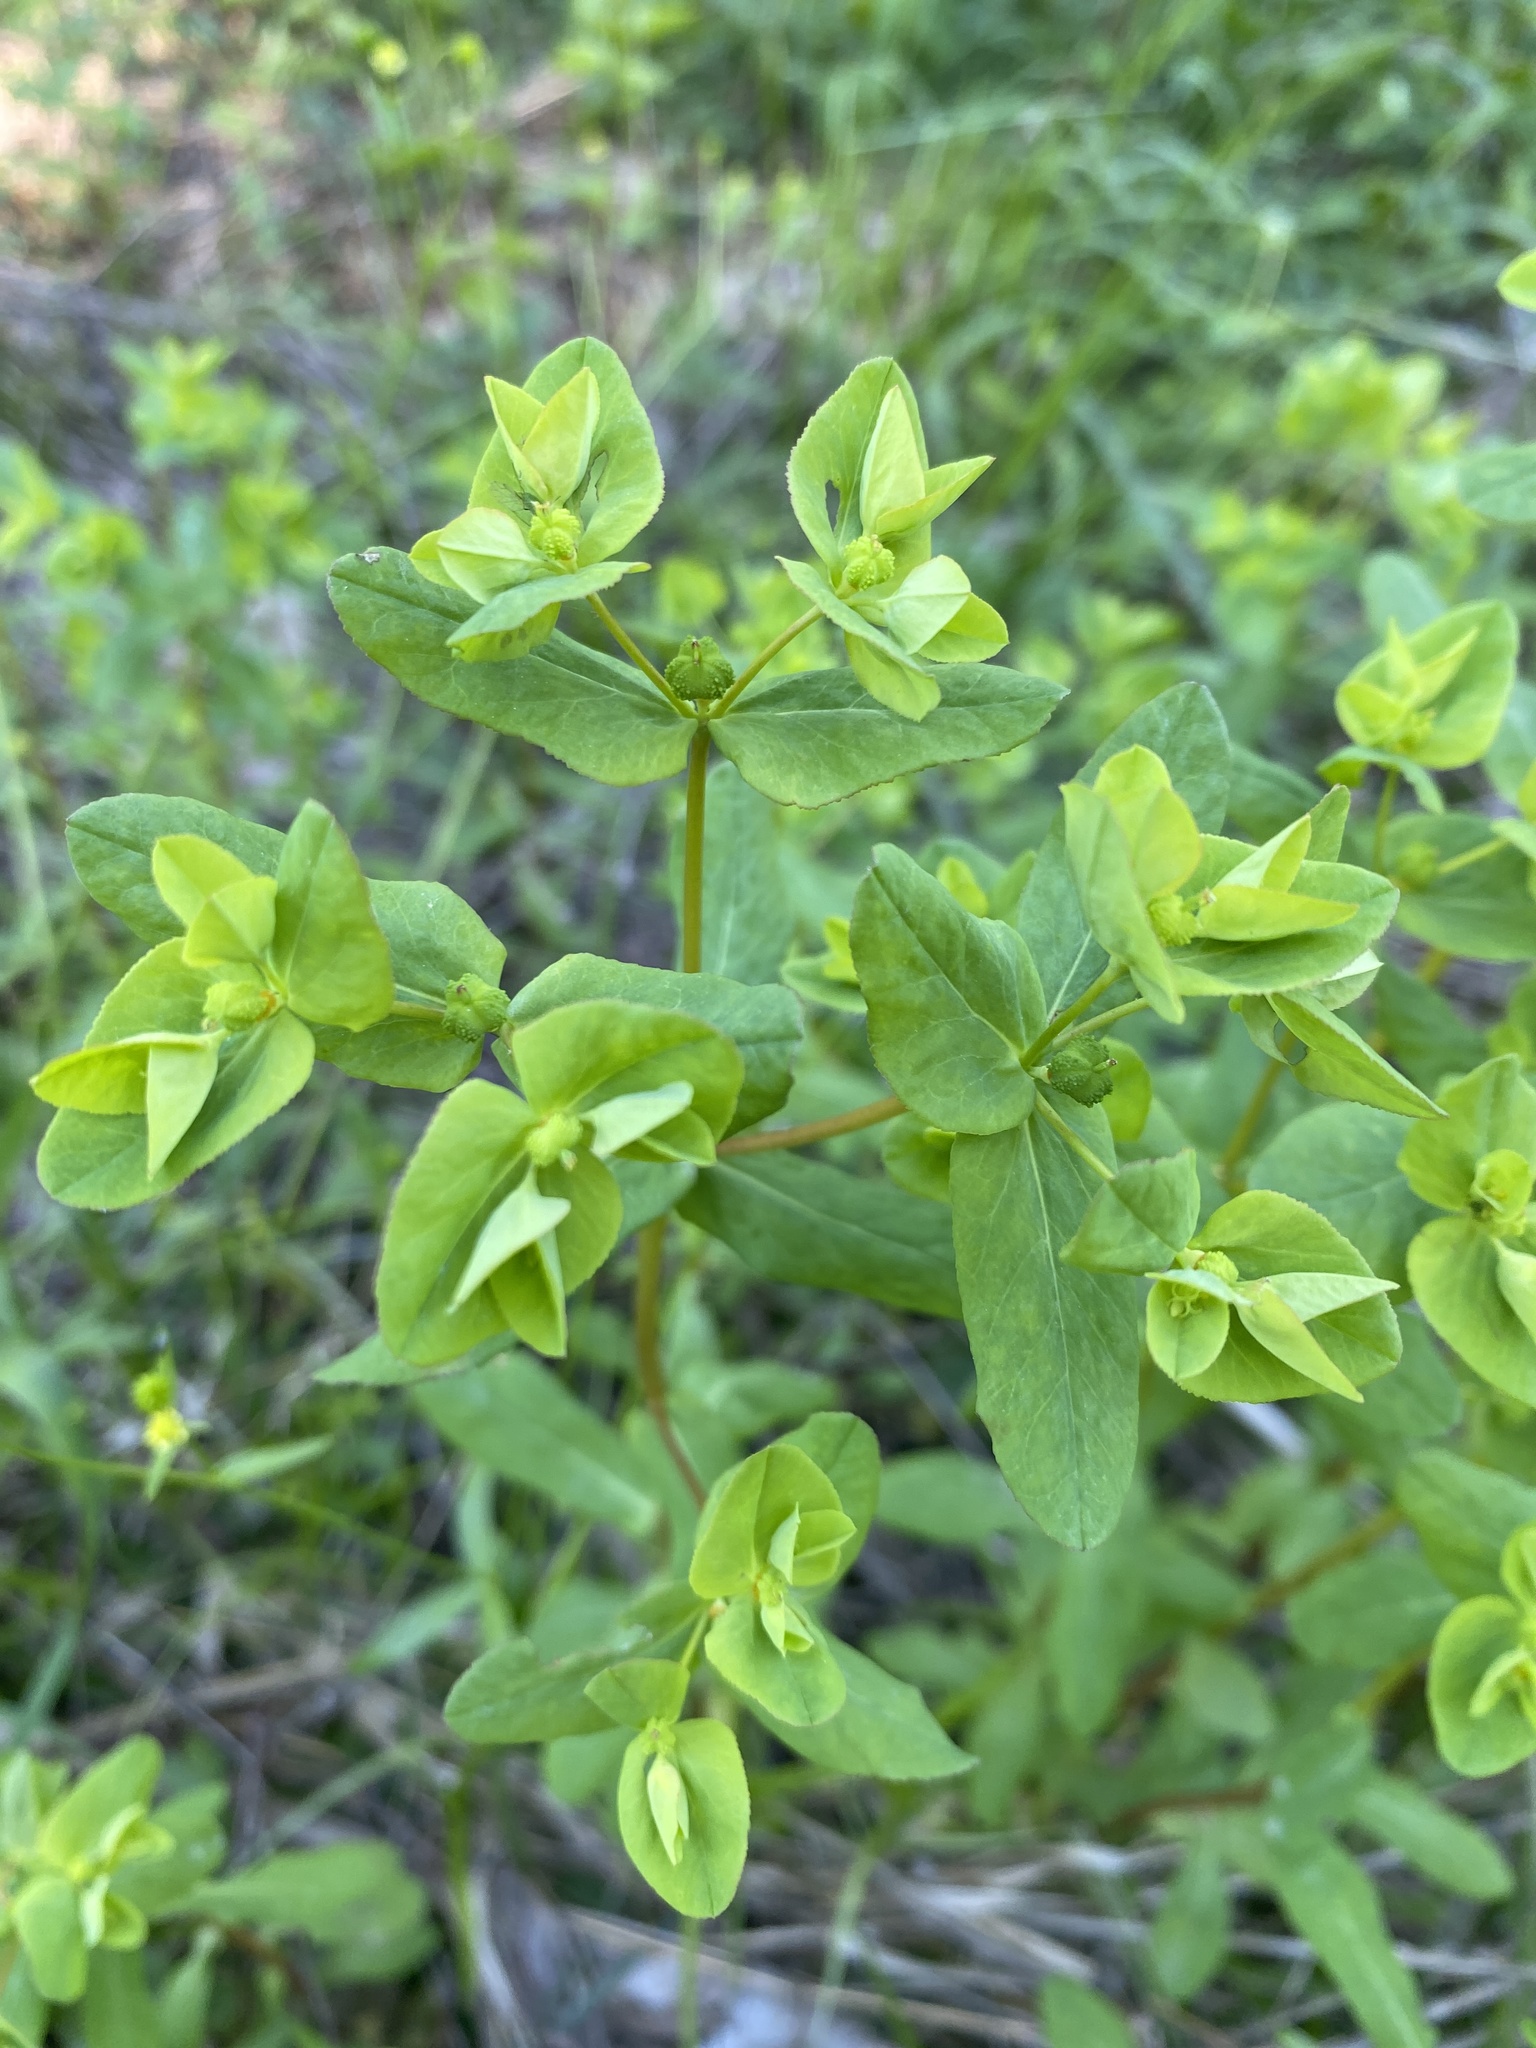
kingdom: Plantae
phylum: Tracheophyta
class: Magnoliopsida
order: Malpighiales
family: Euphorbiaceae
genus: Euphorbia
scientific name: Euphorbia spathulata
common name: Blunt spurge
